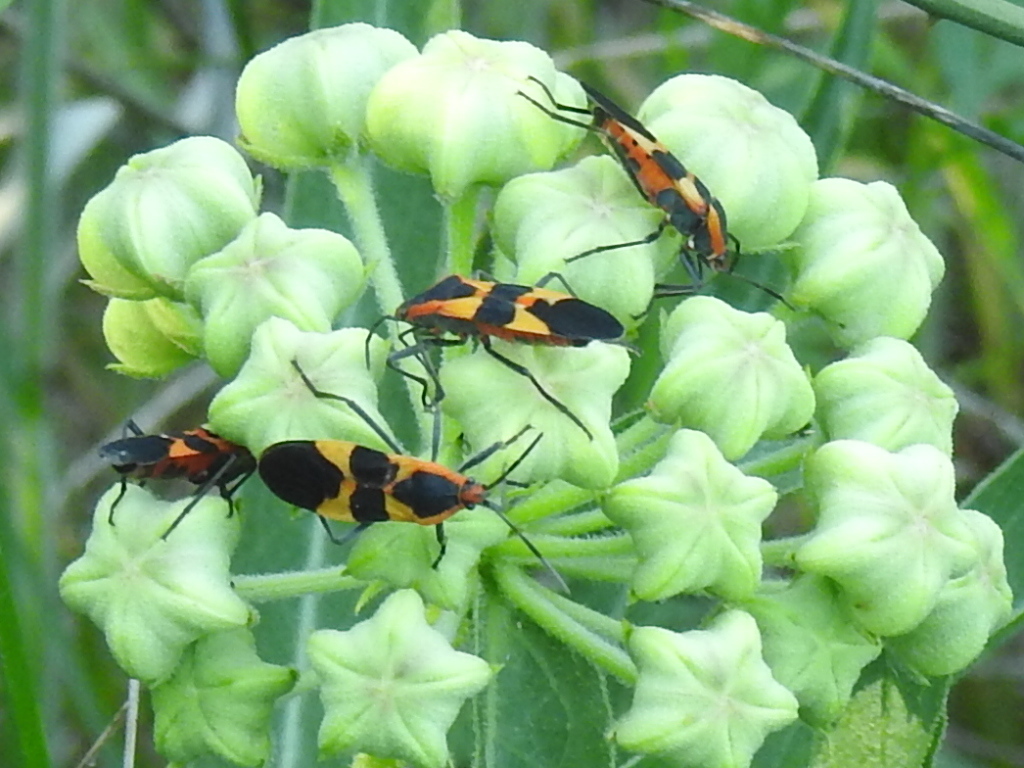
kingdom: Animalia
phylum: Arthropoda
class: Insecta
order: Hemiptera
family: Lygaeidae
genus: Oncopeltus
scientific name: Oncopeltus fasciatus
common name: Large milkweed bug
